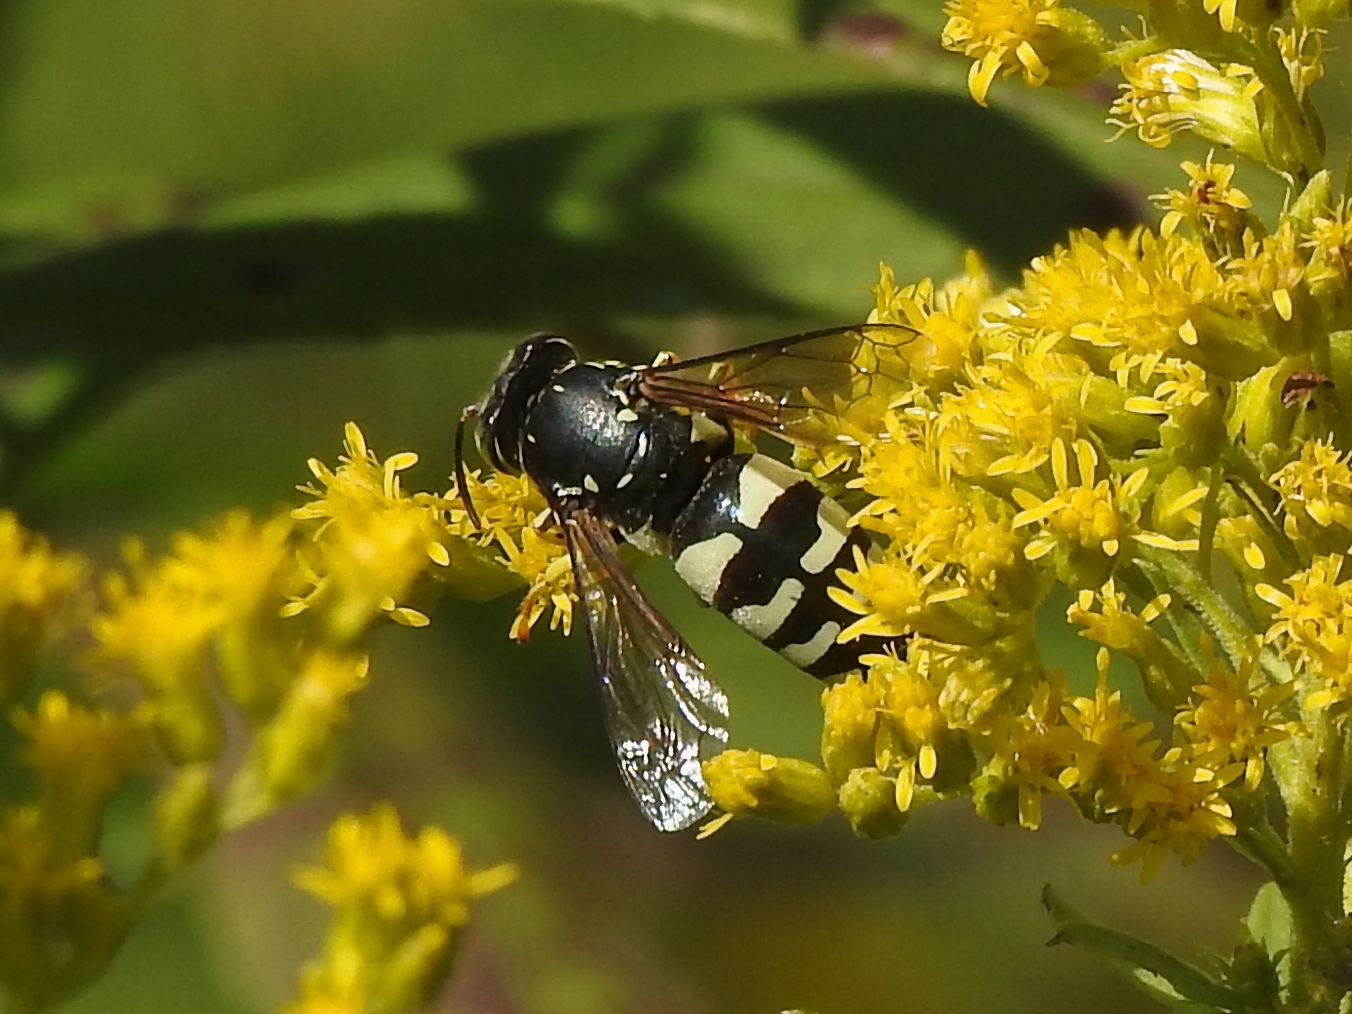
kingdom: Animalia
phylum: Arthropoda
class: Insecta
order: Hymenoptera
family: Crabronidae
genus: Bicyrtes
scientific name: Bicyrtes quadrifasciatus
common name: Four-banded stink bug hunter wasp
